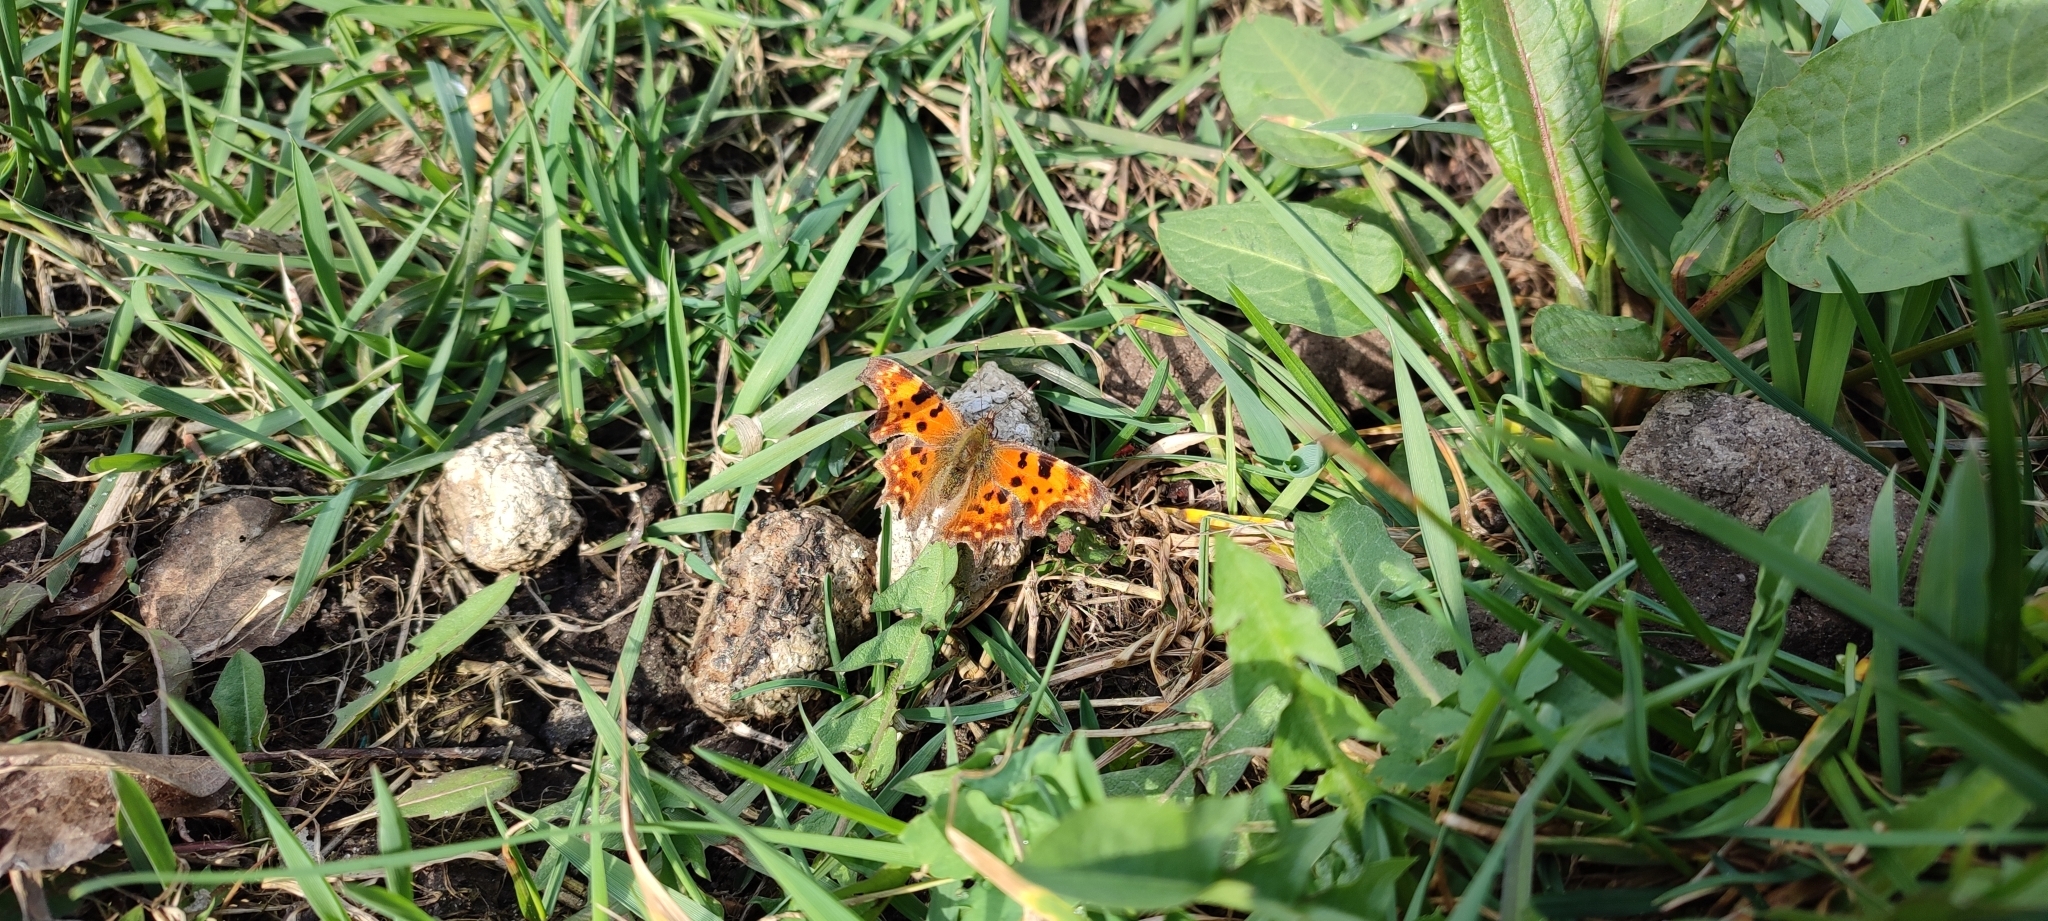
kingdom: Animalia
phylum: Arthropoda
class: Insecta
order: Lepidoptera
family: Nymphalidae
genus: Polygonia
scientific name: Polygonia c-album
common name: Comma
